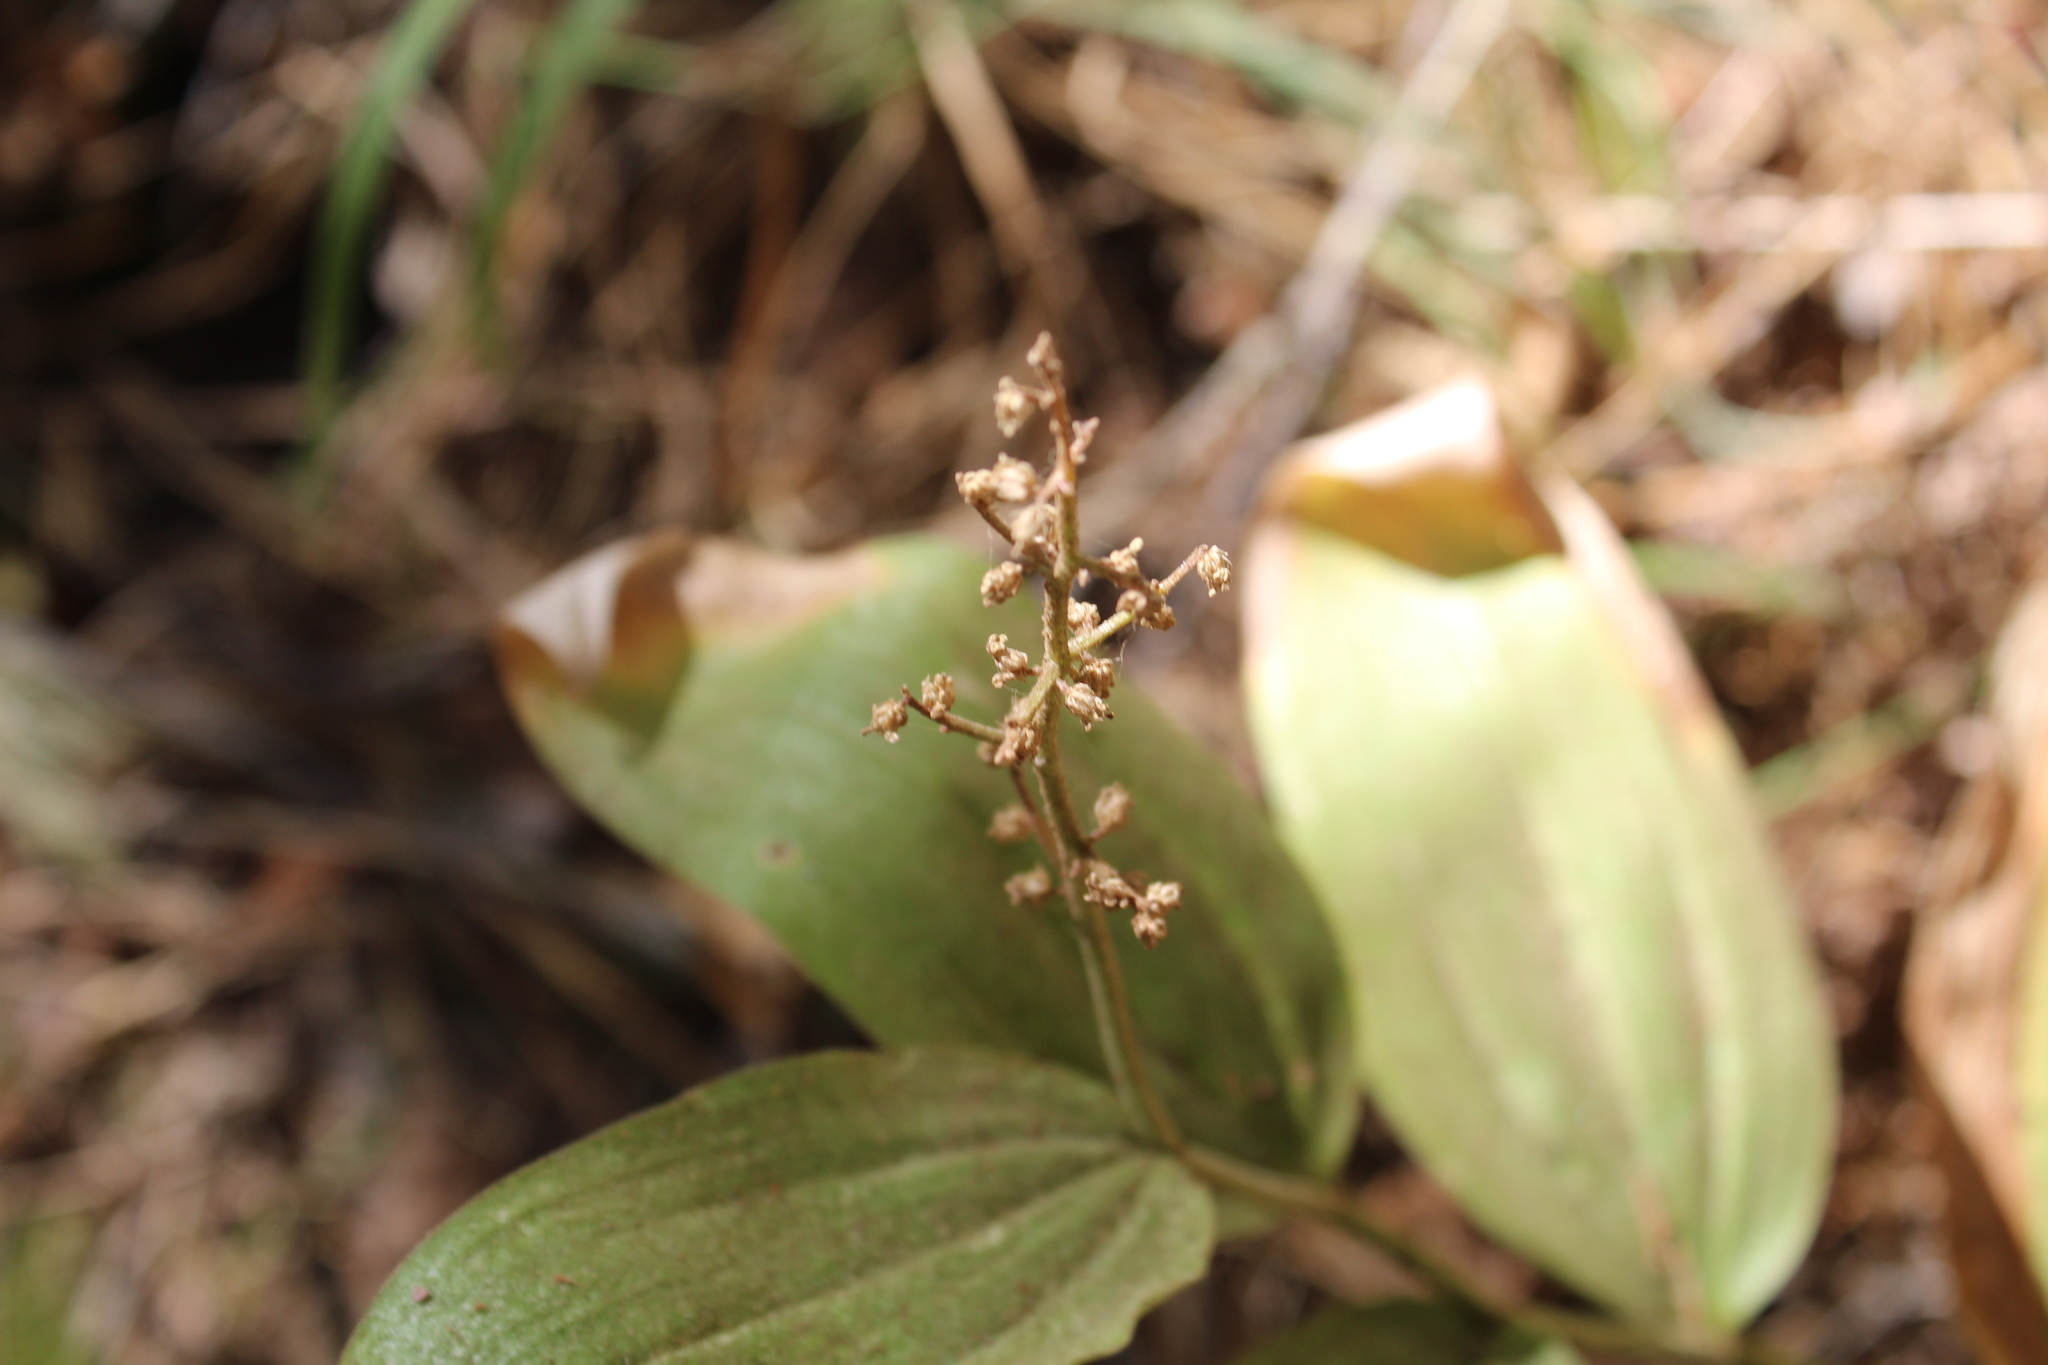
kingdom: Plantae
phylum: Tracheophyta
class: Liliopsida
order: Asparagales
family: Asparagaceae
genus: Maianthemum
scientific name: Maianthemum racemosum
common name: False spikenard
